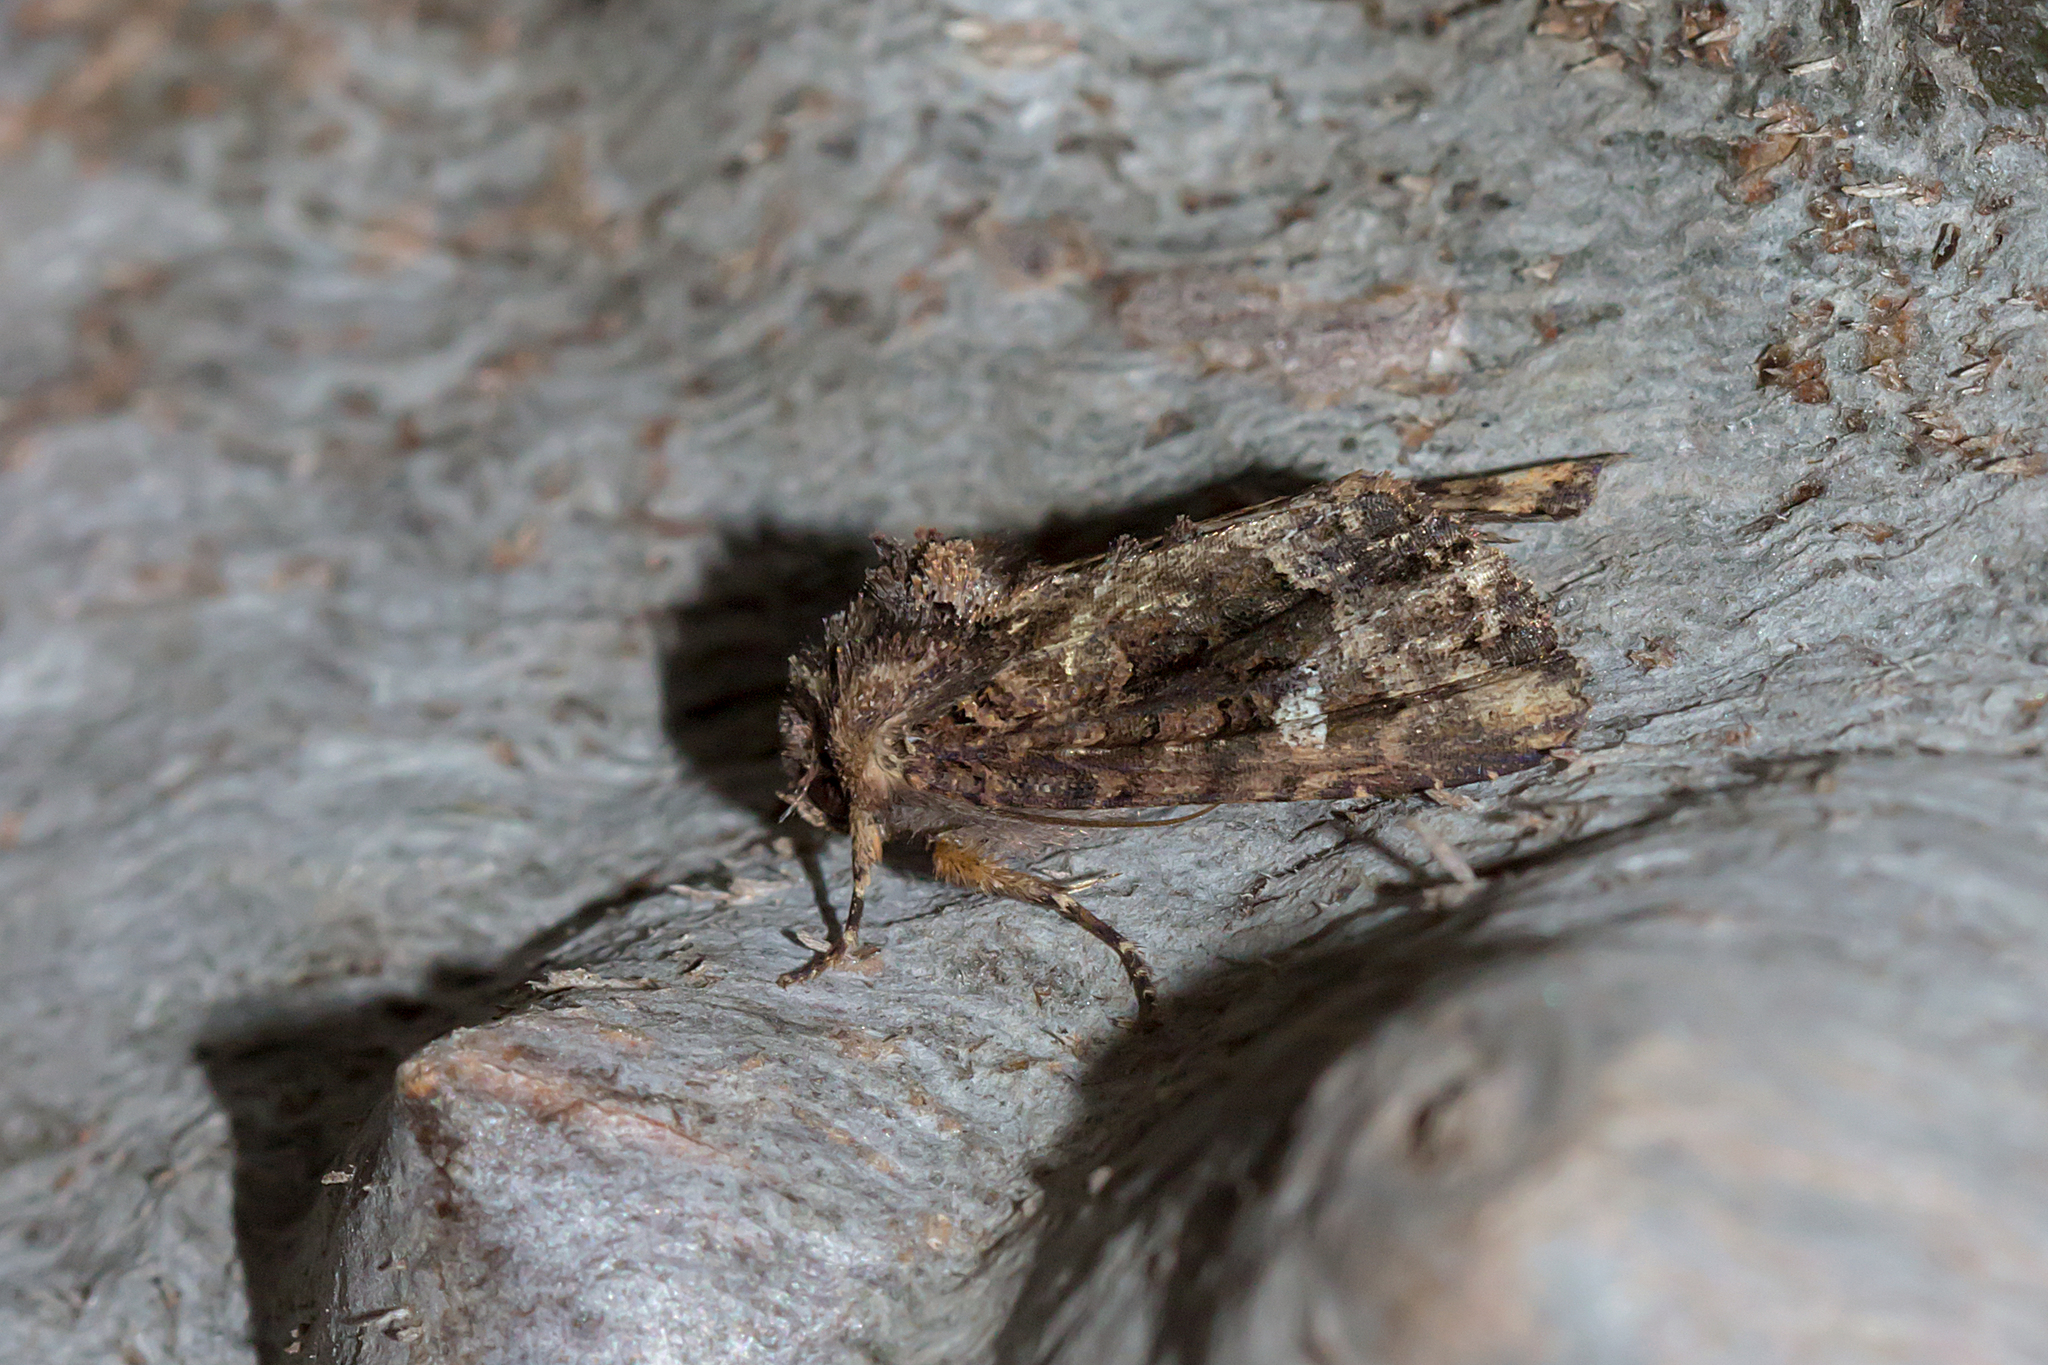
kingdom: Animalia
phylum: Arthropoda
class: Insecta
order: Lepidoptera
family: Noctuidae
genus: Neumichtis
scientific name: Neumichtis saliaris
